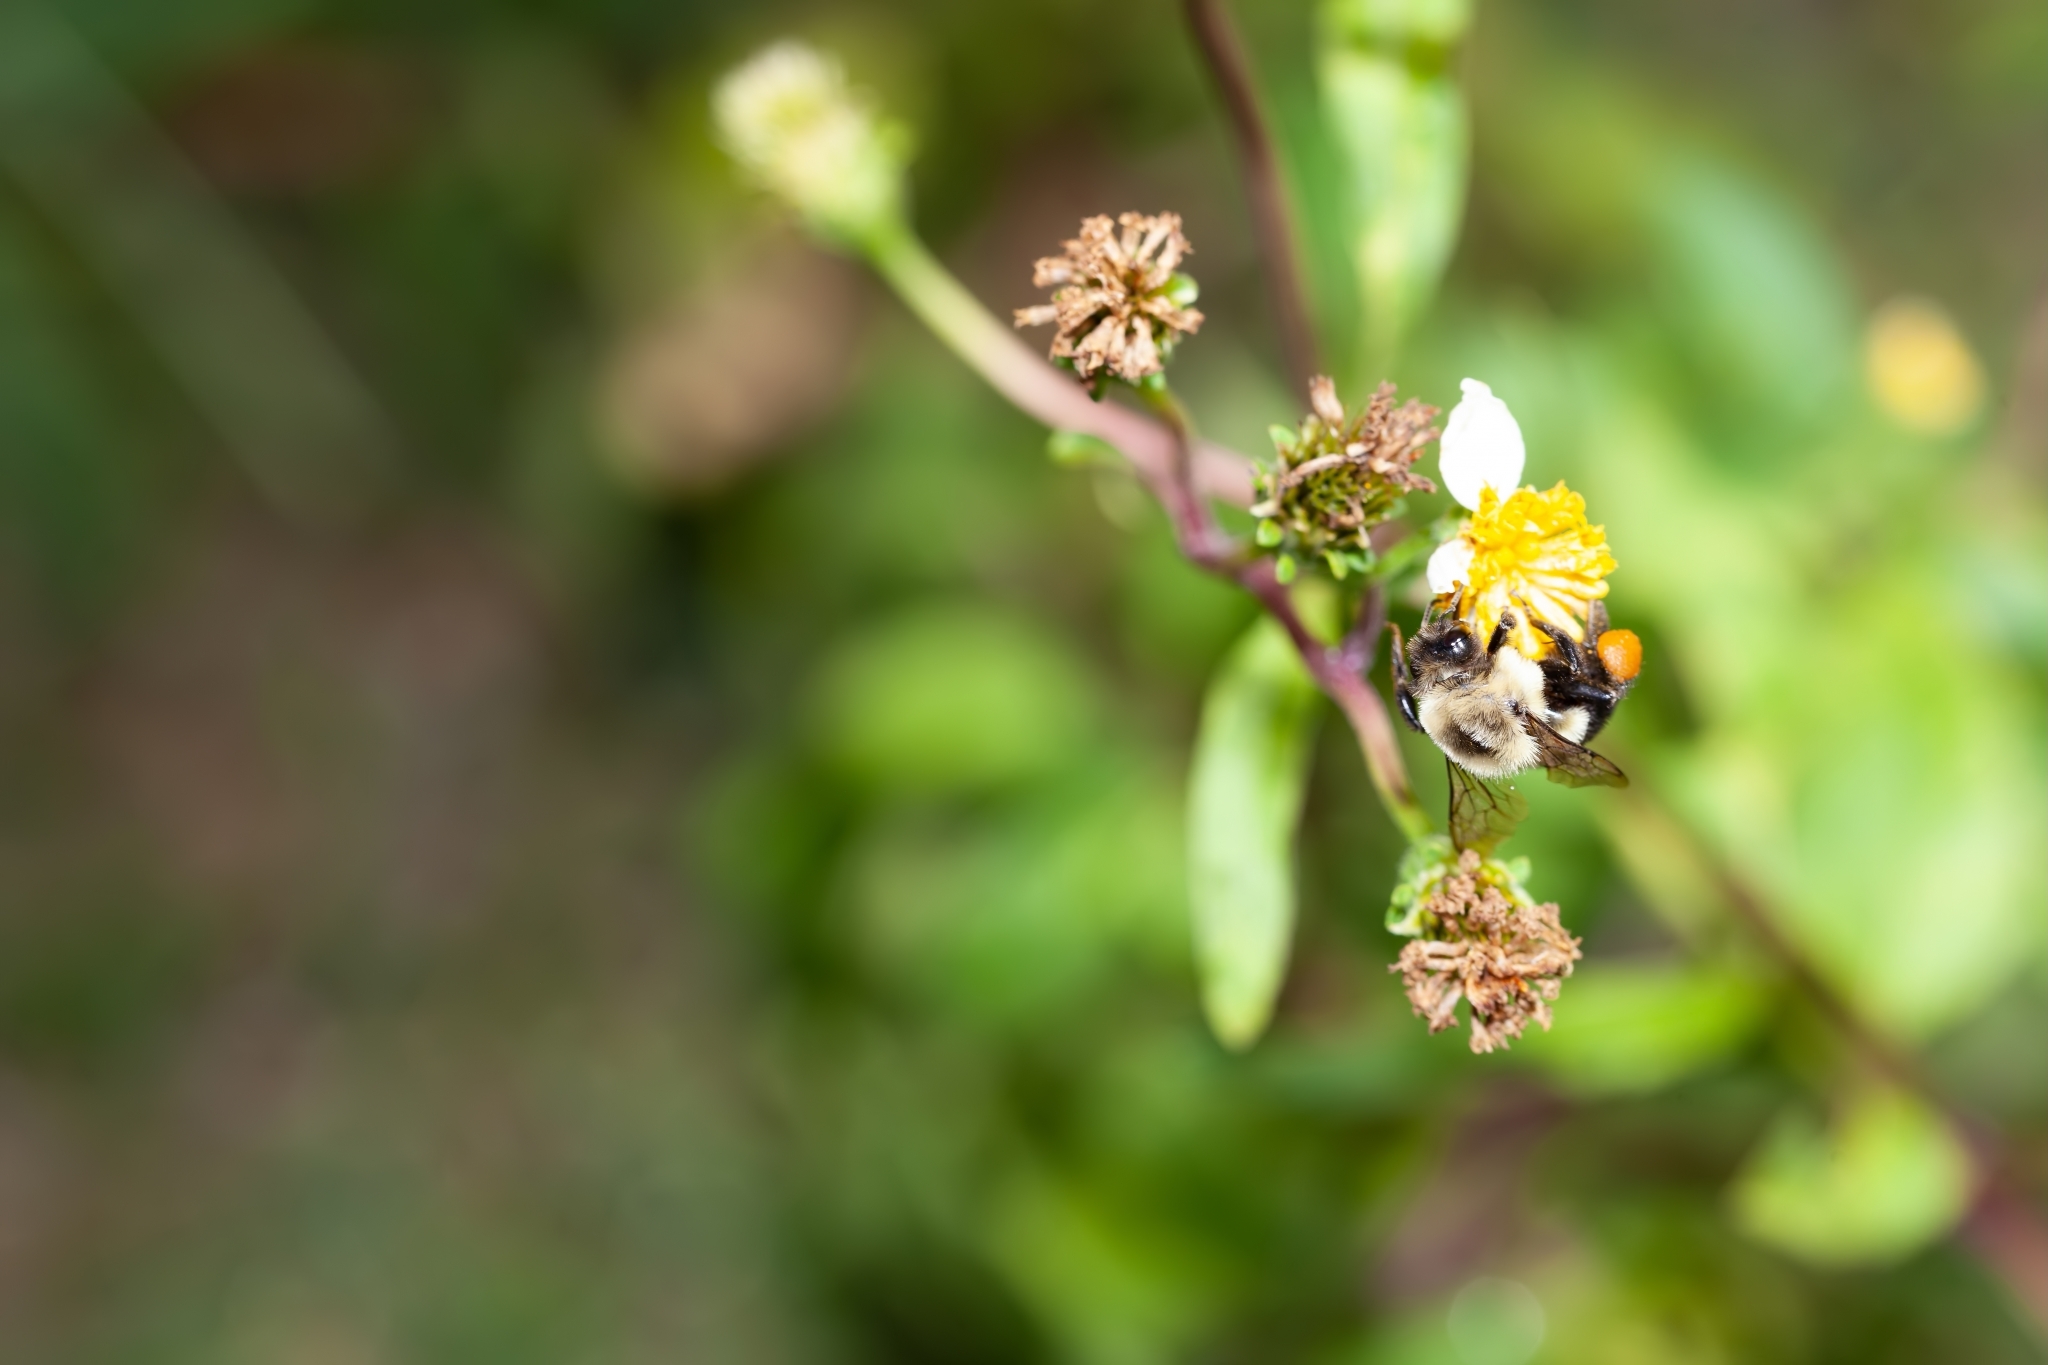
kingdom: Animalia
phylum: Arthropoda
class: Insecta
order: Hymenoptera
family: Apidae
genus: Bombus
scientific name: Bombus impatiens
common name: Common eastern bumble bee
